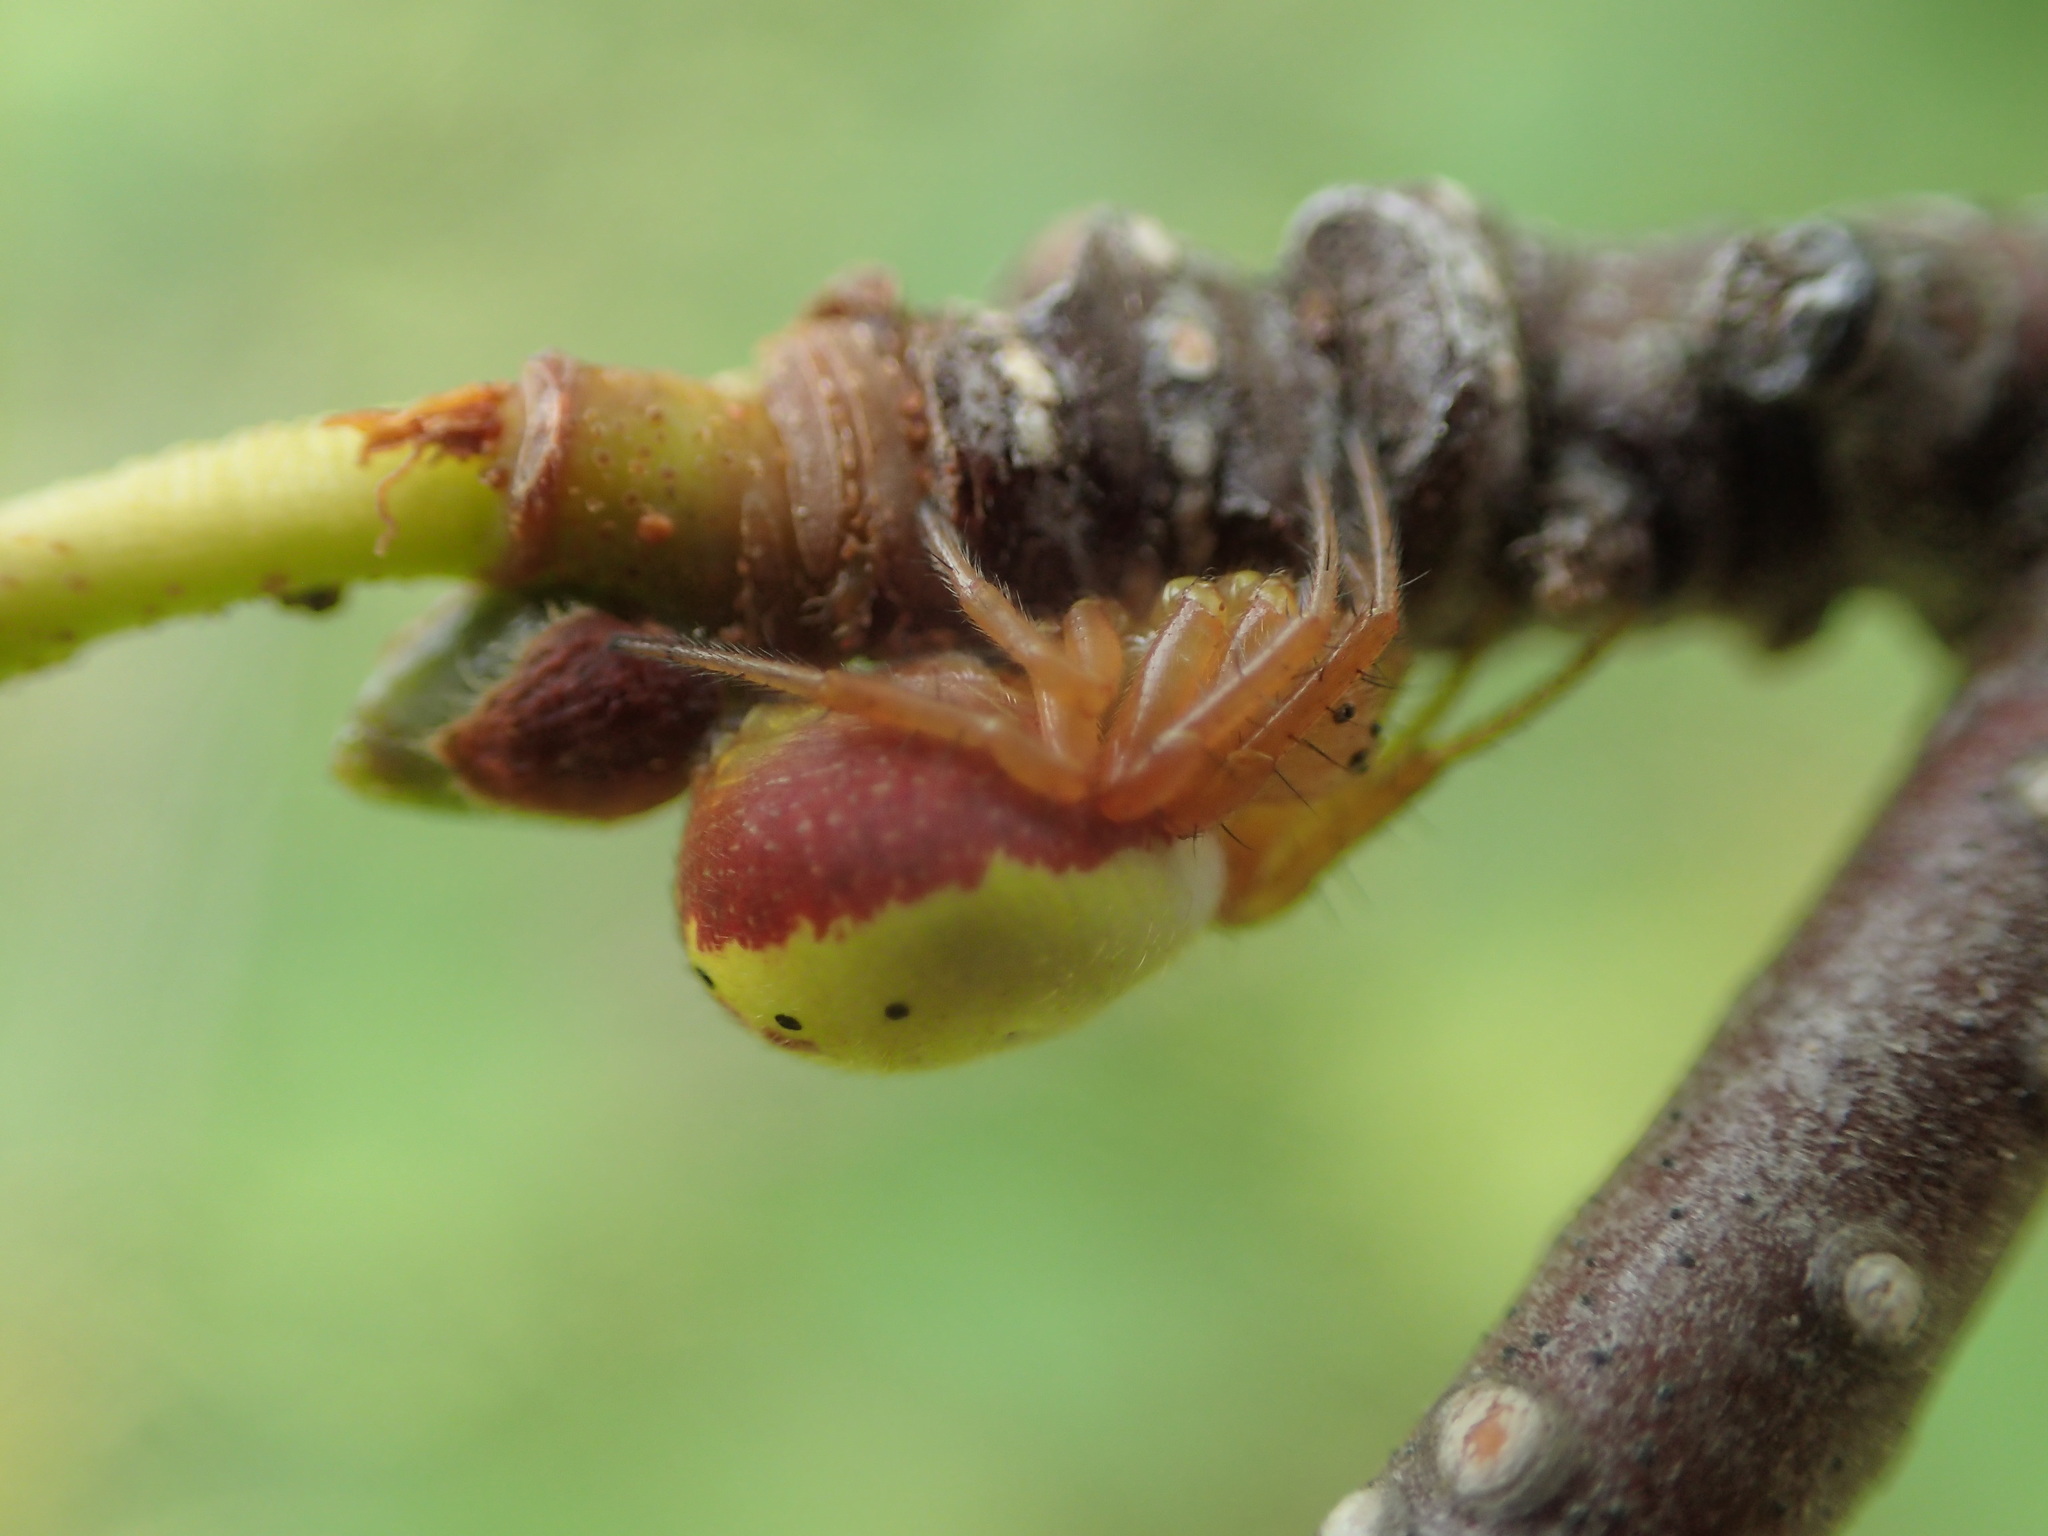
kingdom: Animalia
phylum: Arthropoda
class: Arachnida
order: Araneae
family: Araneidae
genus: Araniella
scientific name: Araniella displicata
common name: Sixspotted orb weaver
